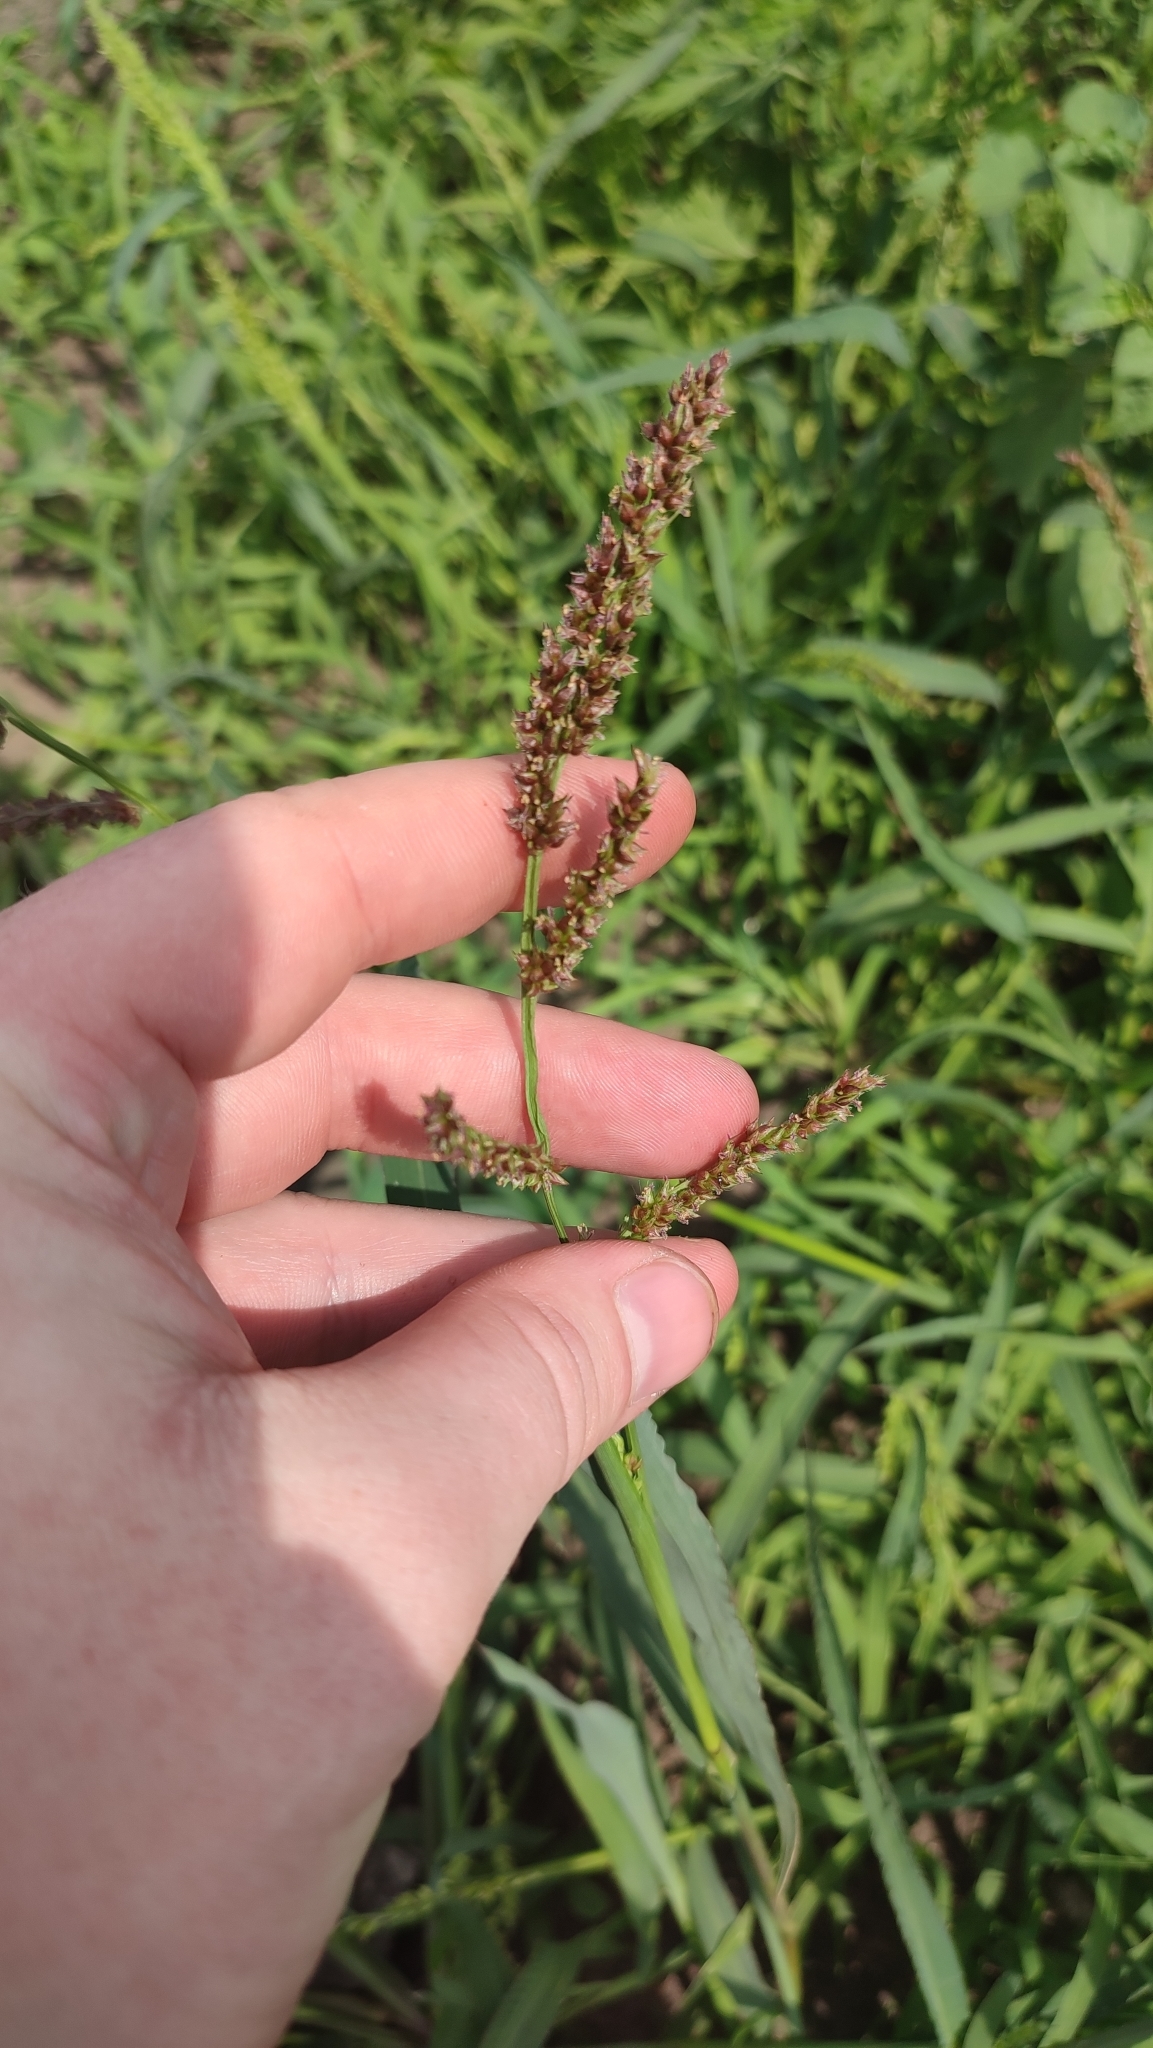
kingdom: Plantae
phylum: Tracheophyta
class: Liliopsida
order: Poales
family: Poaceae
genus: Echinochloa
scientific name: Echinochloa crus-galli
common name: Cockspur
